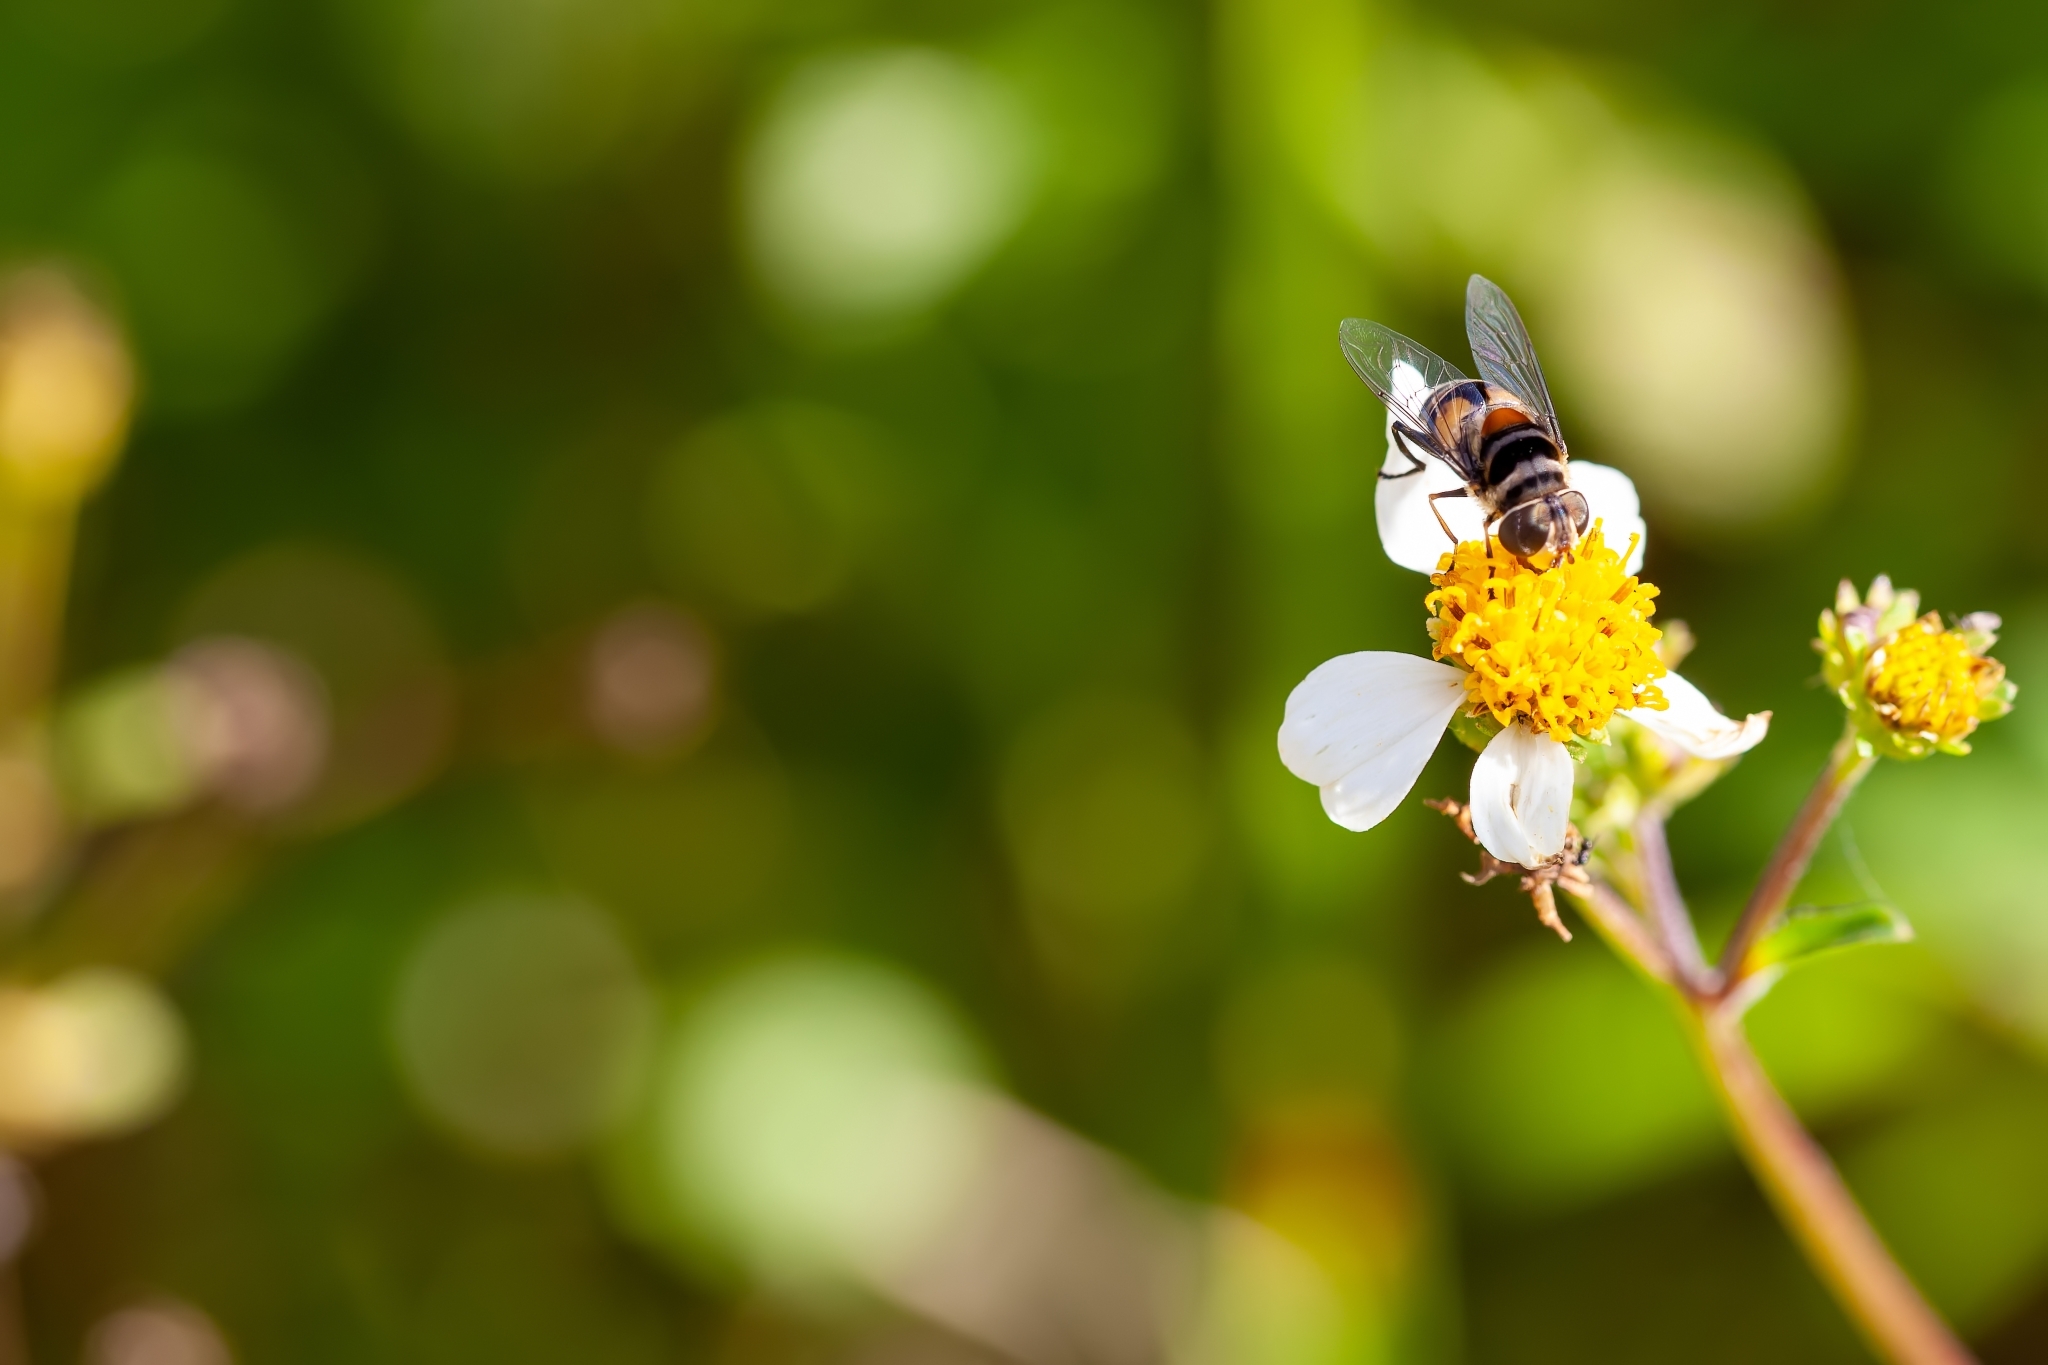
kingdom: Animalia
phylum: Arthropoda
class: Insecta
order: Diptera
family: Syrphidae
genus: Palpada
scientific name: Palpada agrorum
